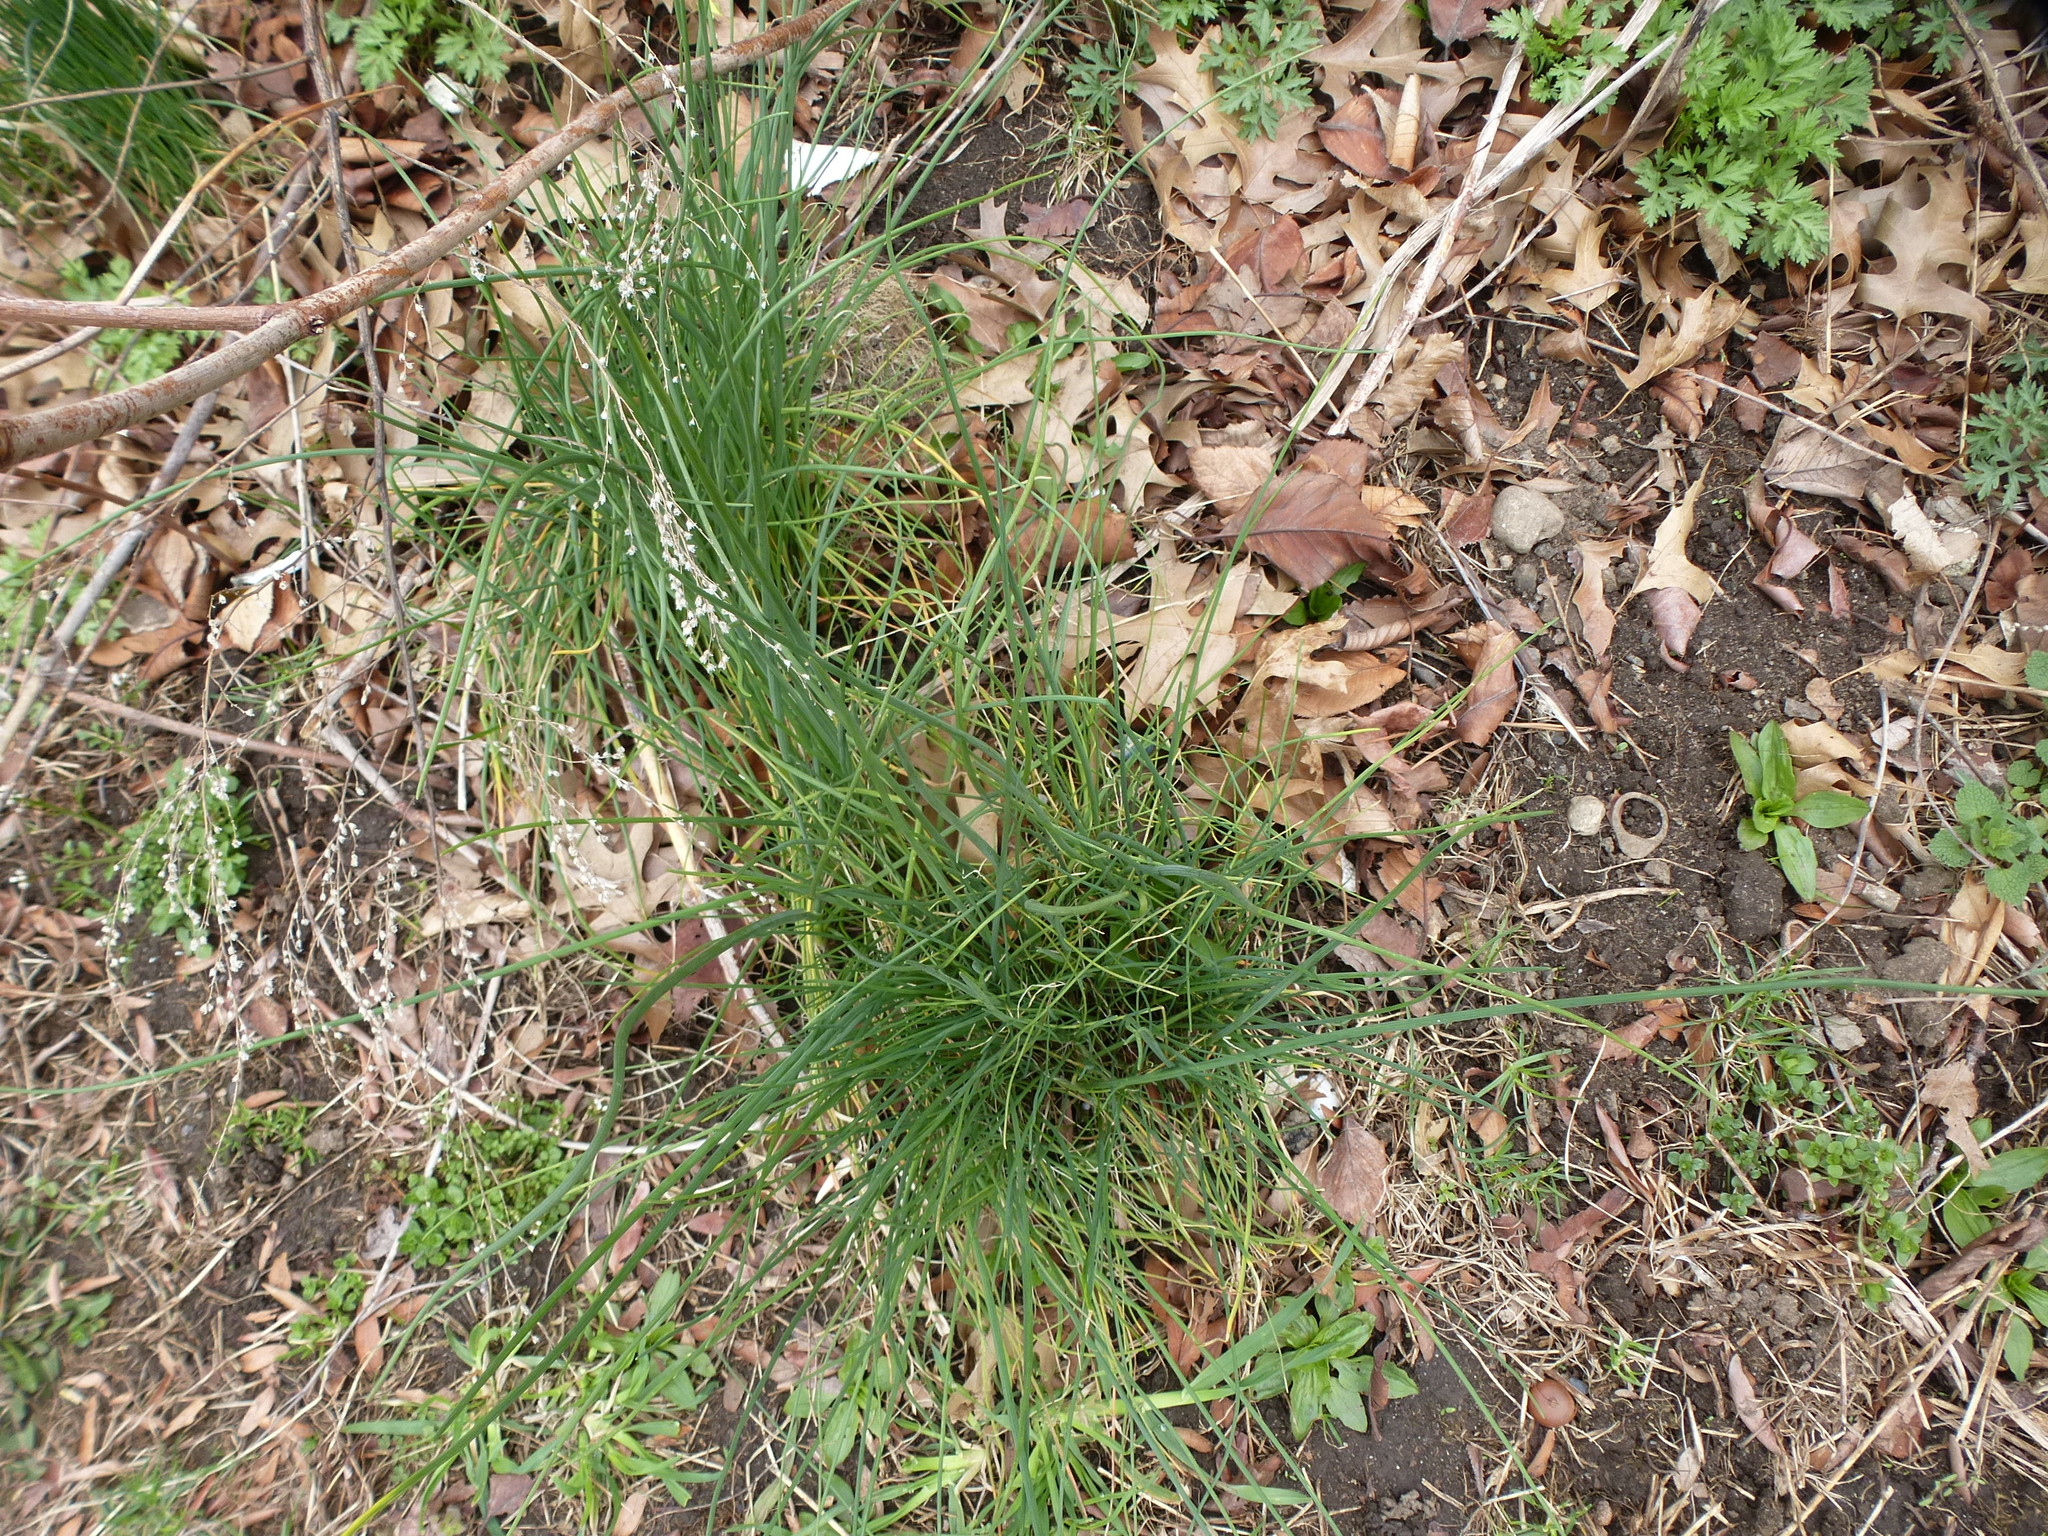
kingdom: Plantae
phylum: Tracheophyta
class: Liliopsida
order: Asparagales
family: Amaryllidaceae
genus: Allium
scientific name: Allium vineale
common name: Crow garlic
